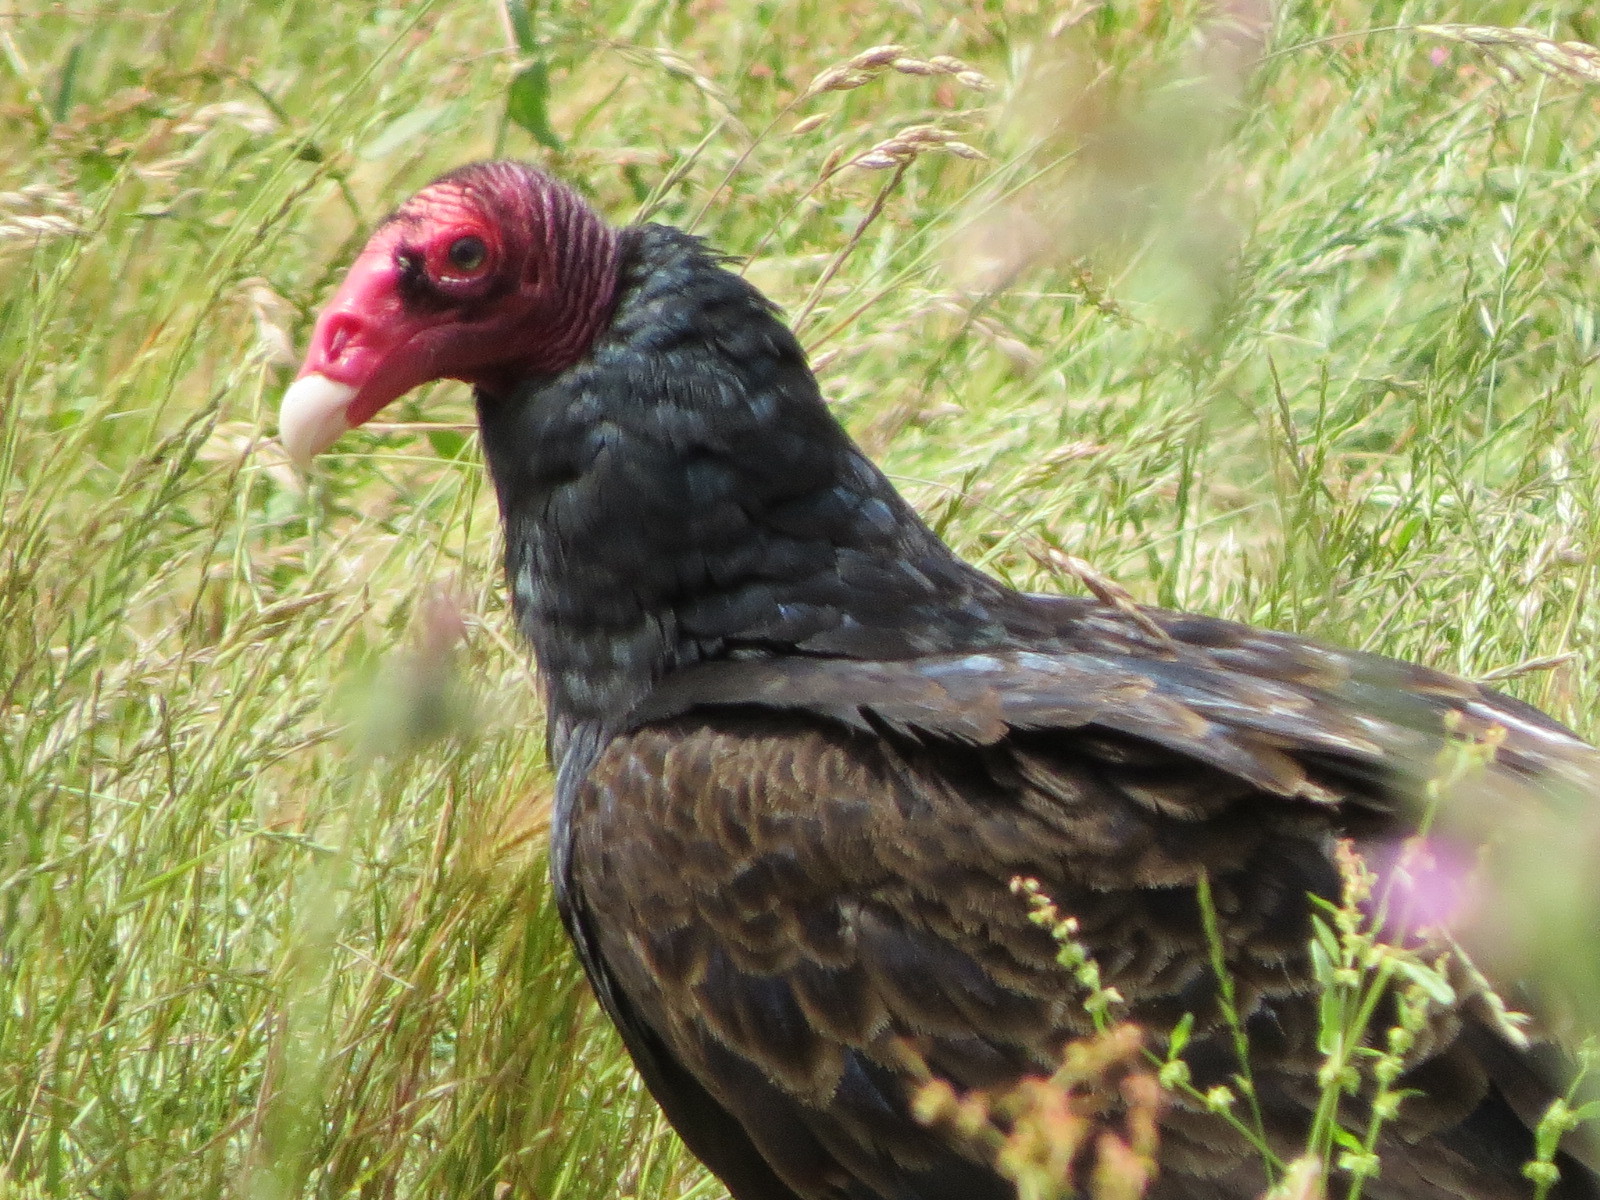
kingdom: Animalia
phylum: Chordata
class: Aves
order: Accipitriformes
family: Cathartidae
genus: Cathartes
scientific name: Cathartes aura
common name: Turkey vulture
